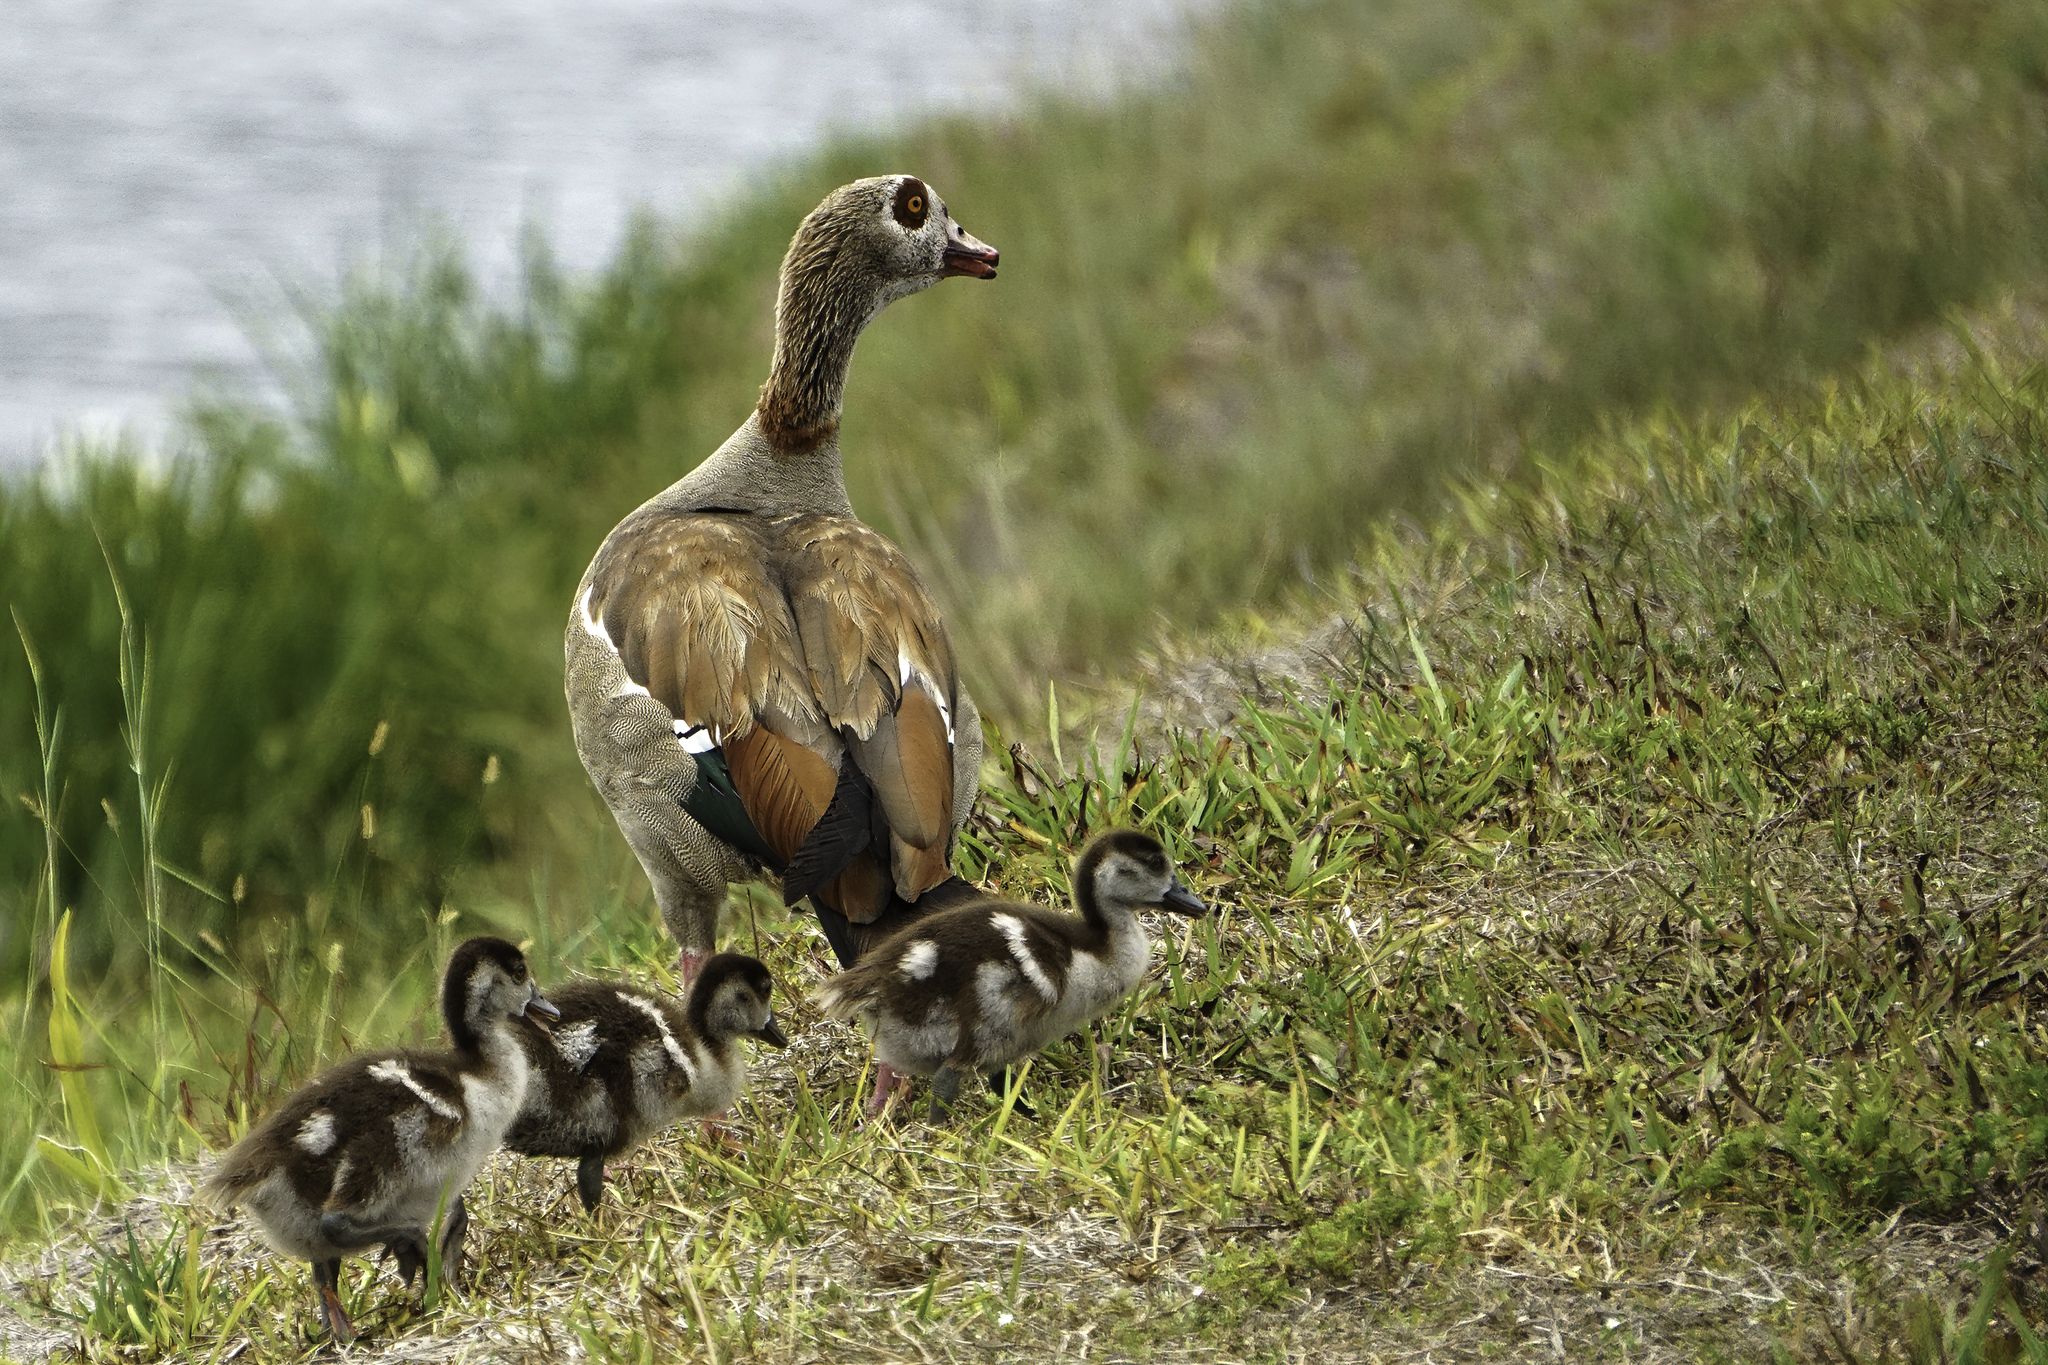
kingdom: Animalia
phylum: Chordata
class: Aves
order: Anseriformes
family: Anatidae
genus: Alopochen
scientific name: Alopochen aegyptiaca
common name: Egyptian goose
